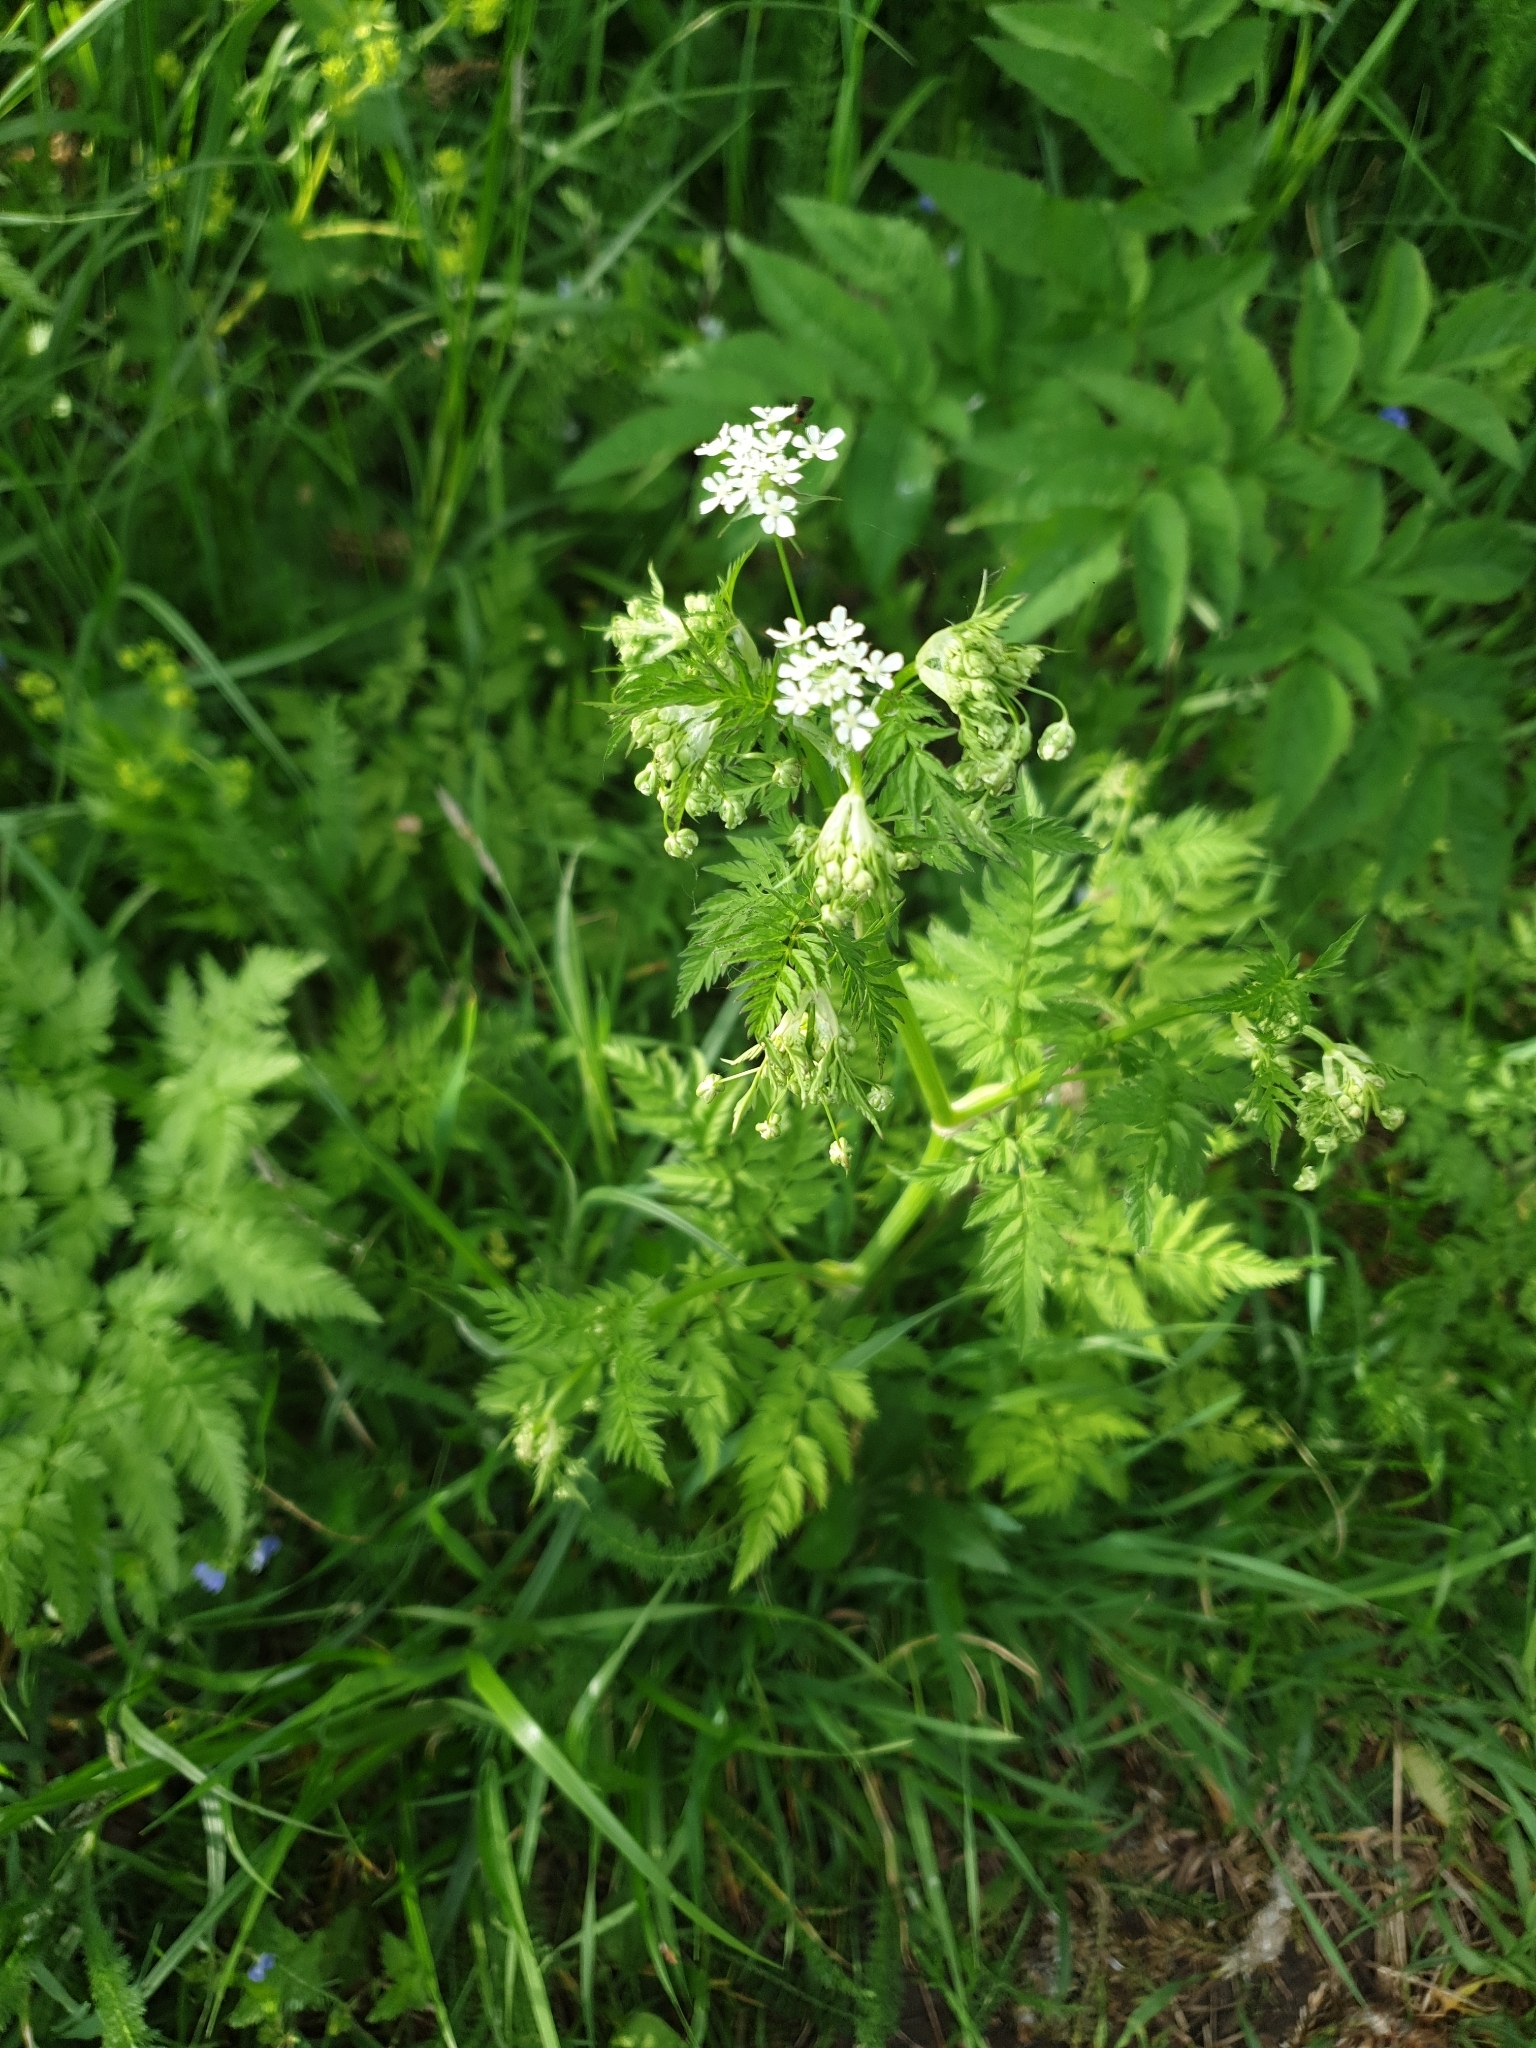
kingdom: Plantae
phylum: Tracheophyta
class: Magnoliopsida
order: Apiales
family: Apiaceae
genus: Anthriscus
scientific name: Anthriscus sylvestris
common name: Cow parsley
